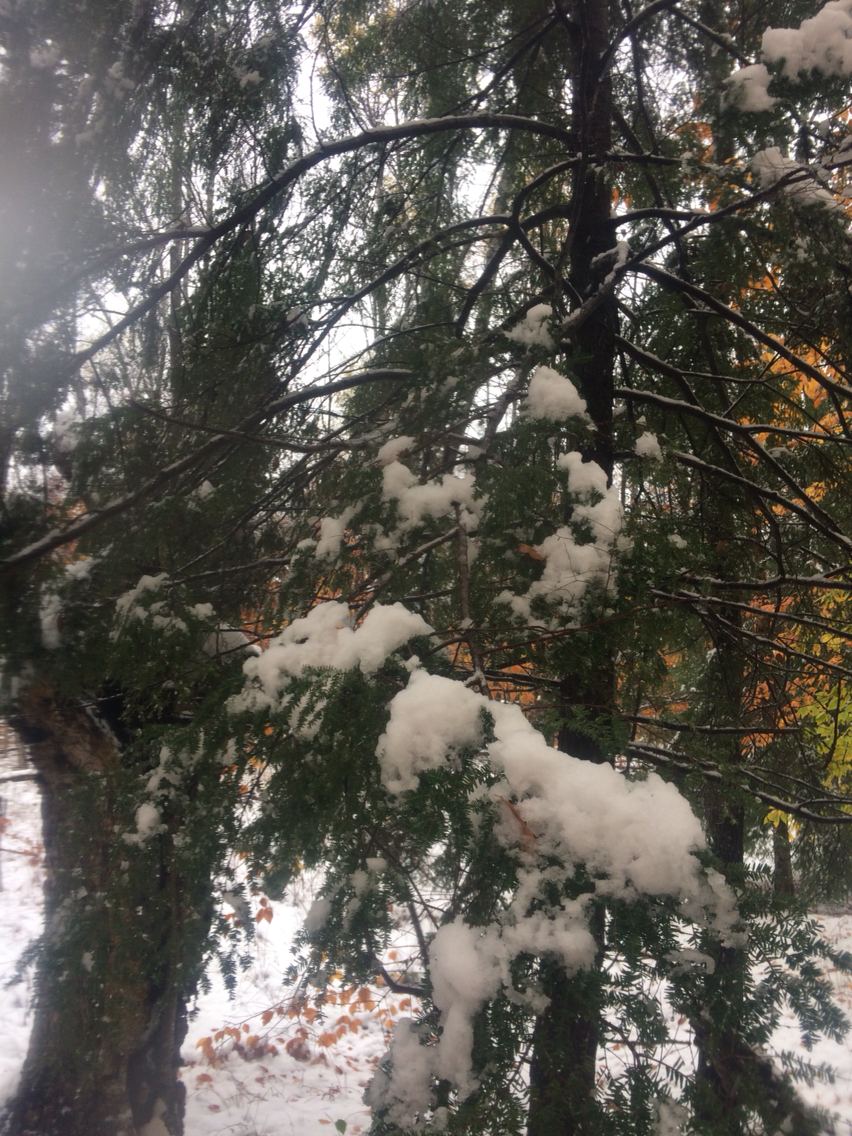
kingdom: Plantae
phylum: Tracheophyta
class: Pinopsida
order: Pinales
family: Pinaceae
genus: Tsuga
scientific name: Tsuga canadensis
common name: Eastern hemlock
